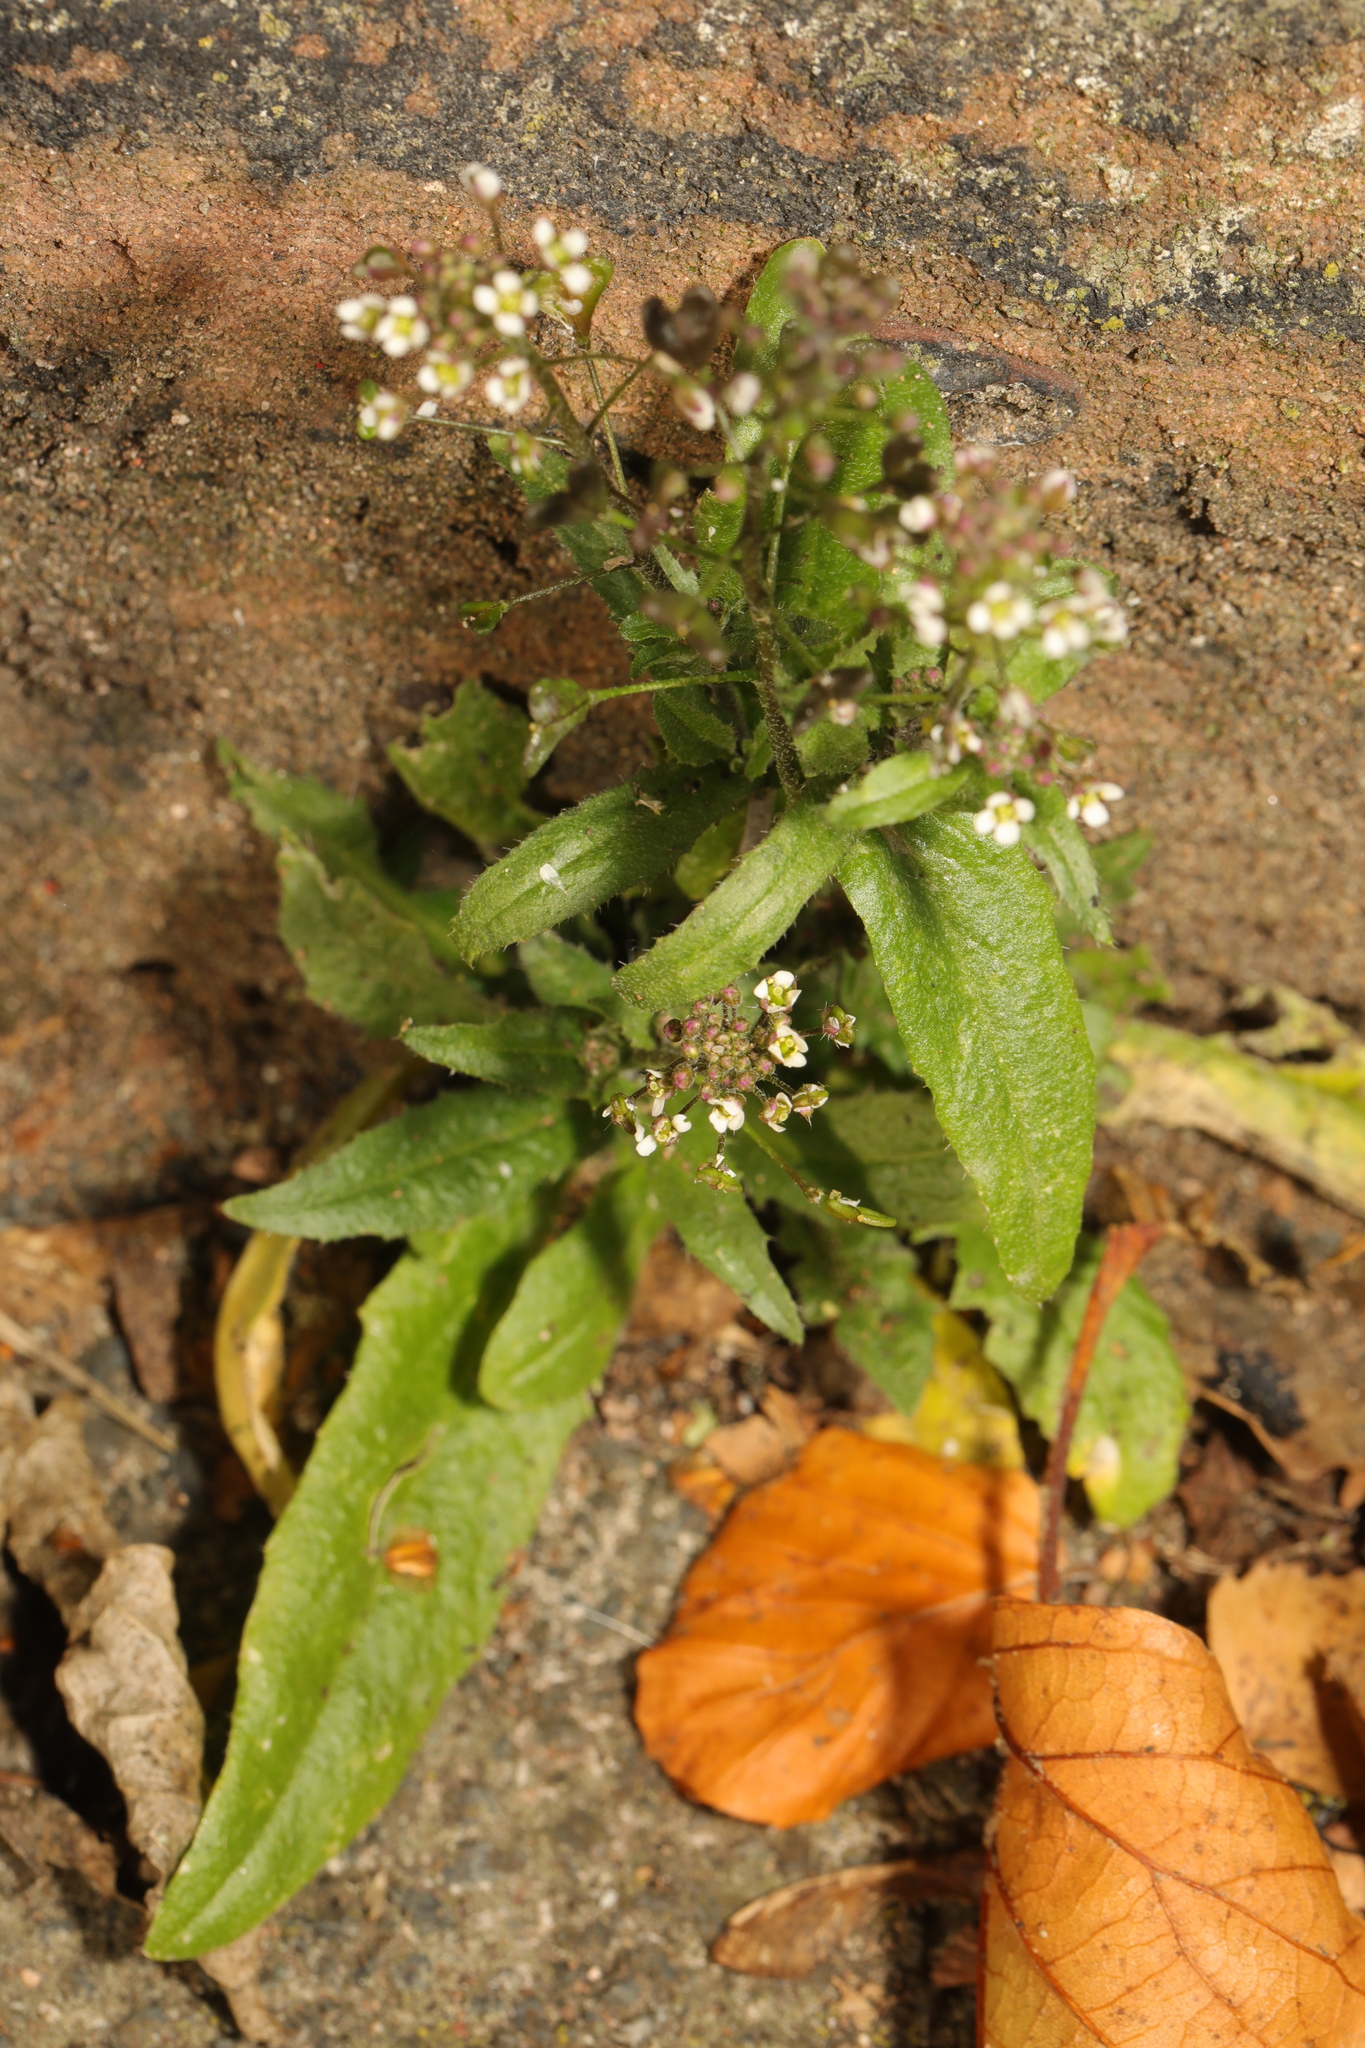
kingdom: Plantae
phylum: Tracheophyta
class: Magnoliopsida
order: Brassicales
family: Brassicaceae
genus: Capsella
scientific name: Capsella bursa-pastoris
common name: Shepherd's purse
